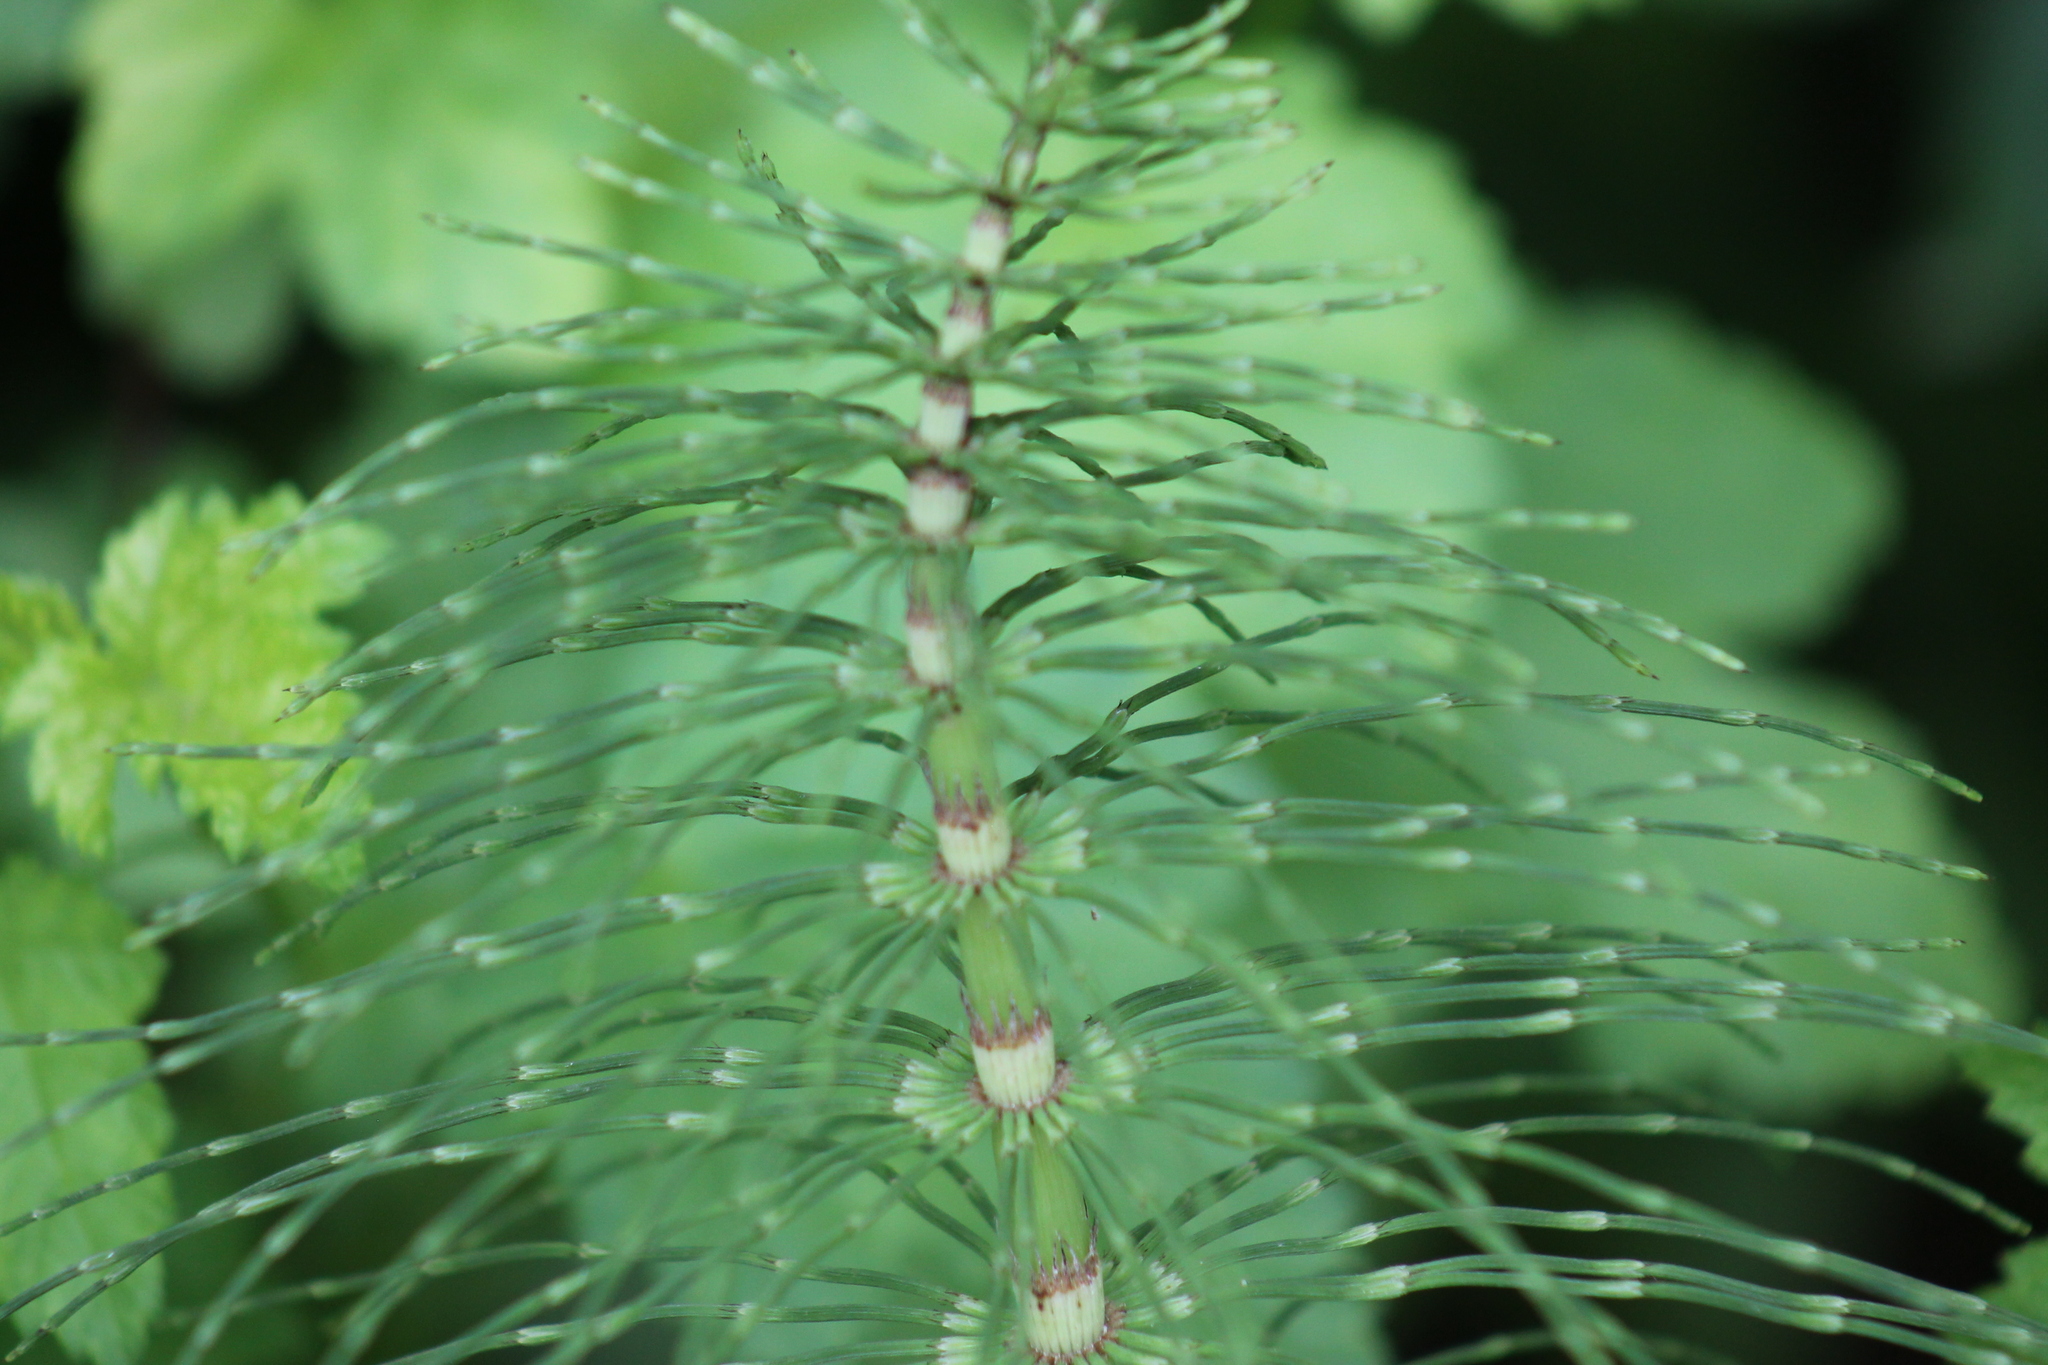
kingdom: Plantae
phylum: Tracheophyta
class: Polypodiopsida
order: Equisetales
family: Equisetaceae
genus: Equisetum
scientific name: Equisetum telmateia
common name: Great horsetail
